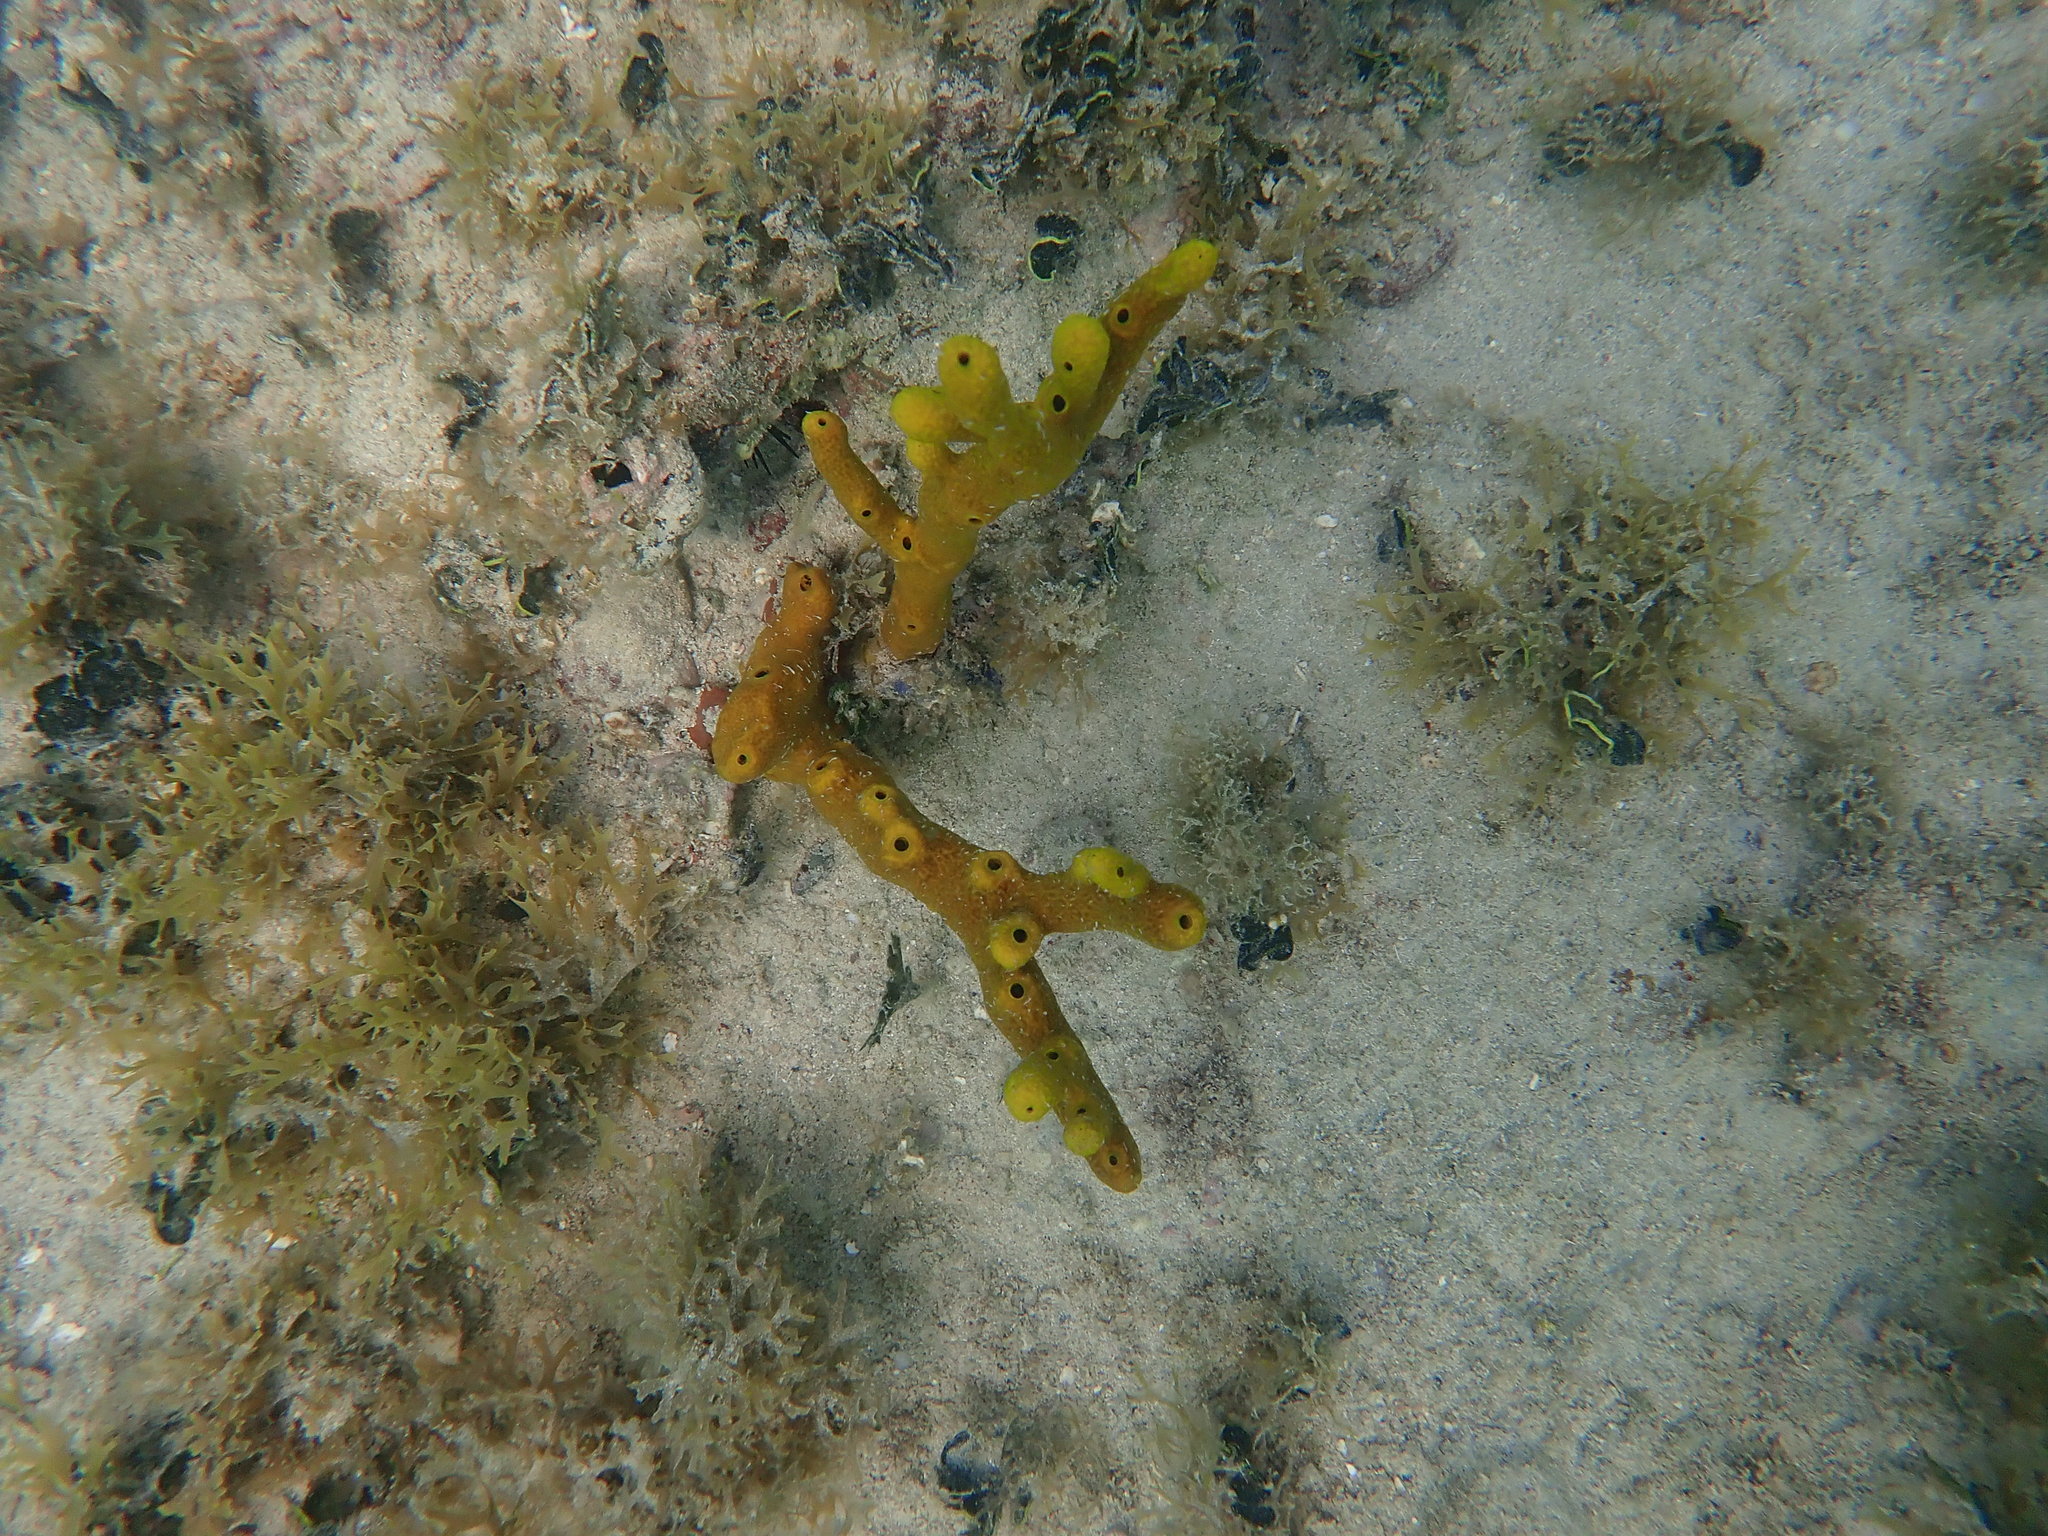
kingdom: Animalia
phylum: Porifera
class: Demospongiae
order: Verongiida
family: Aplysinidae
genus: Aplysina
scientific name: Aplysina fulva
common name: Scattered pore rope sponge
